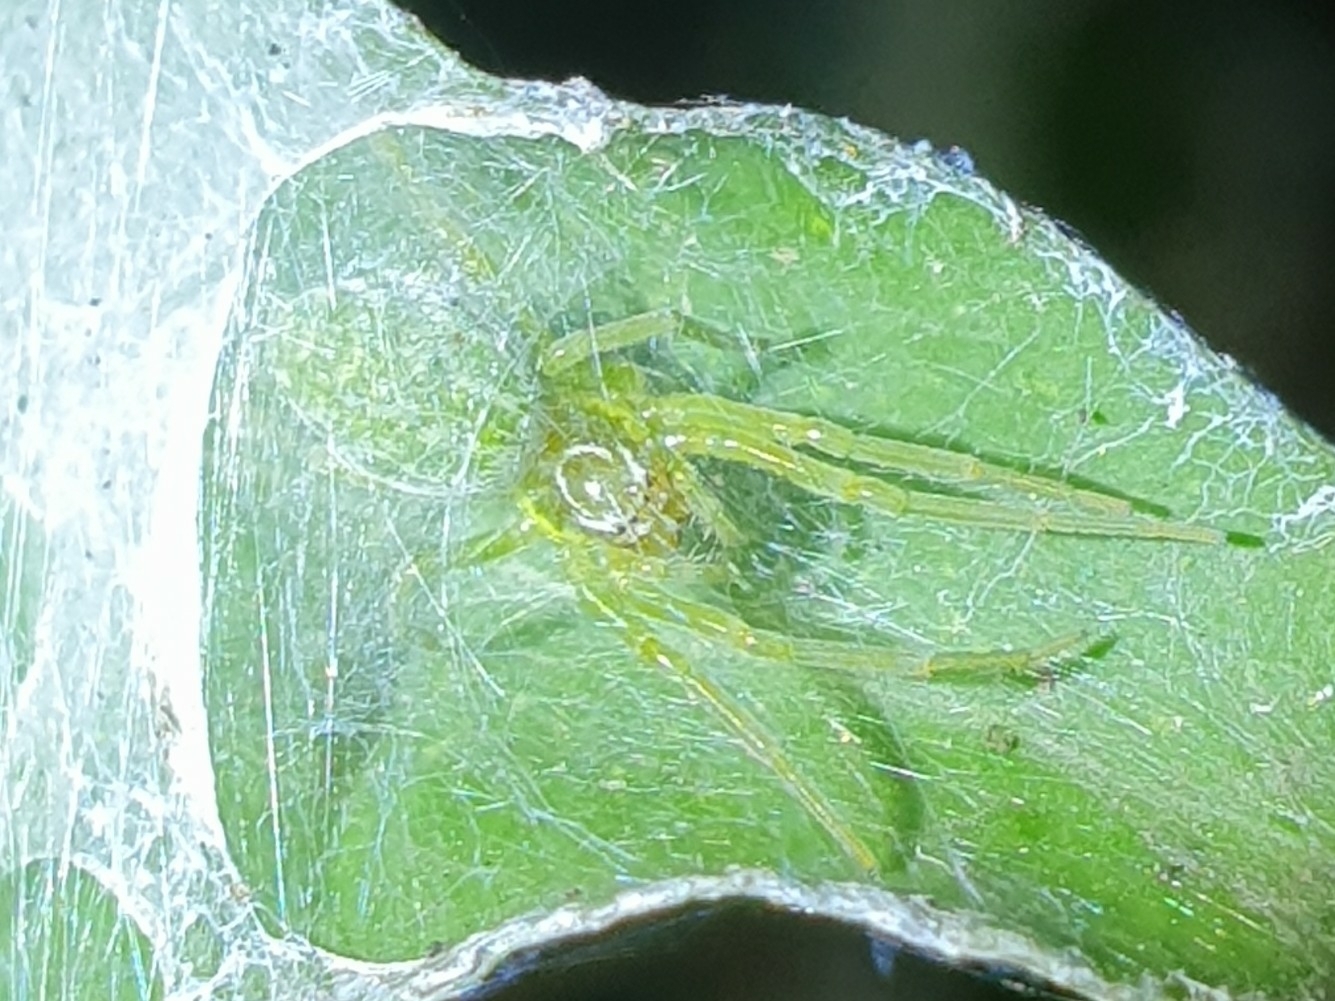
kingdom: Animalia
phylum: Arthropoda
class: Arachnida
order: Araneae
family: Dictynidae
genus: Nigma
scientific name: Nigma walckenaeri
